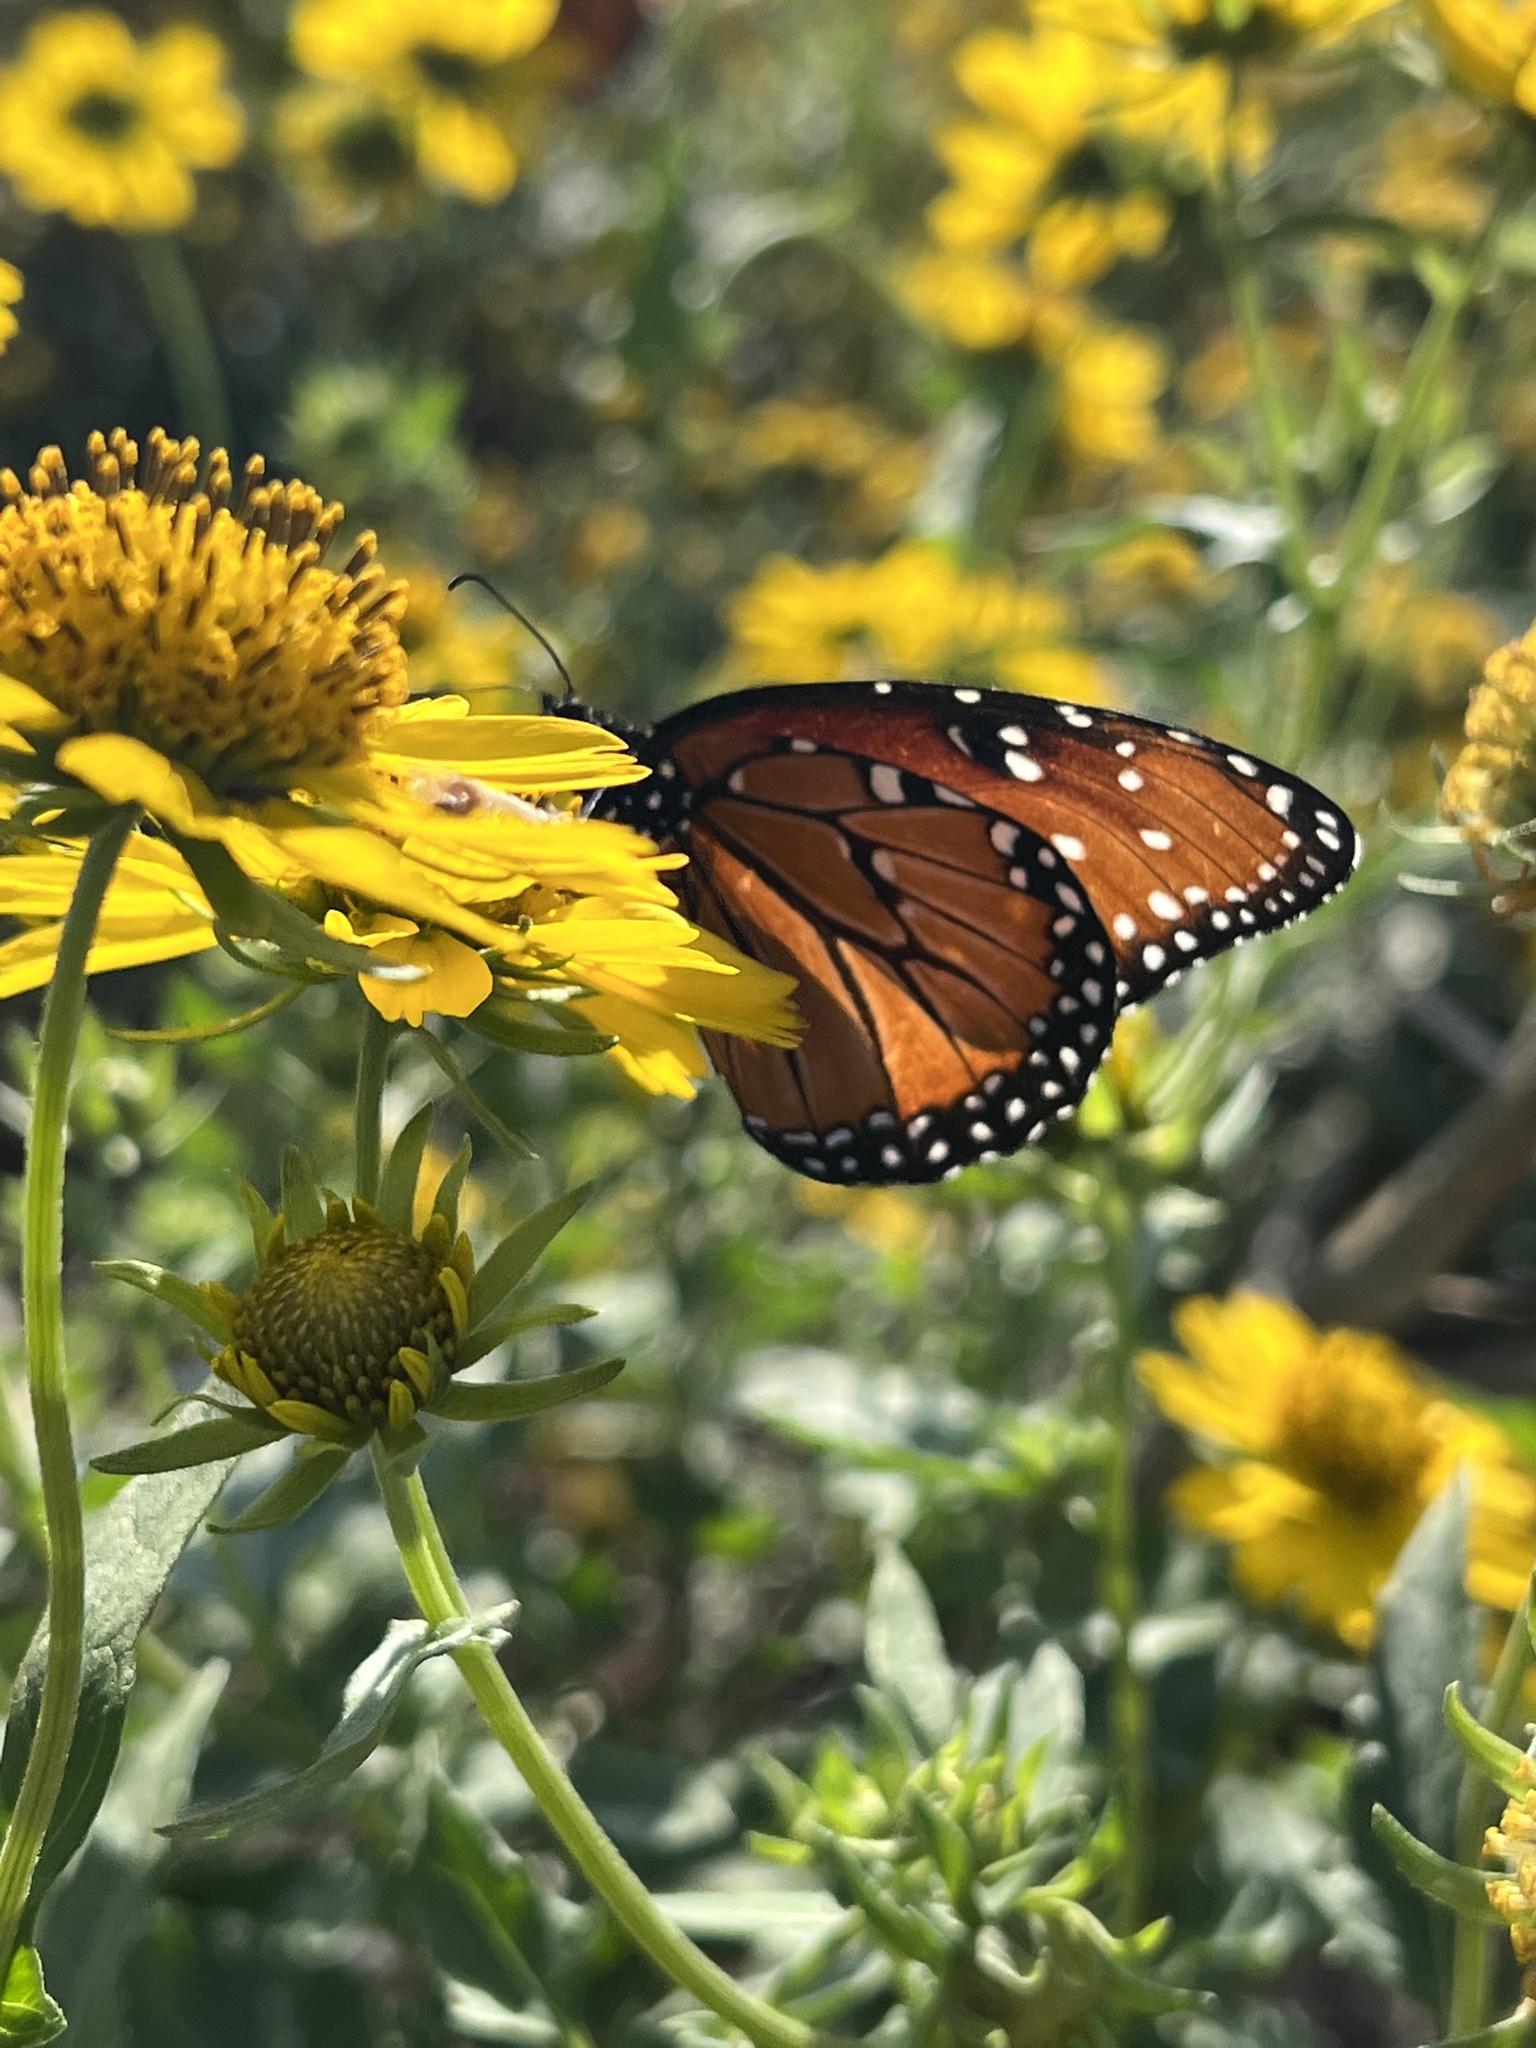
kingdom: Animalia
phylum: Arthropoda
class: Insecta
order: Lepidoptera
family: Nymphalidae
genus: Danaus
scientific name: Danaus gilippus
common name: Queen
